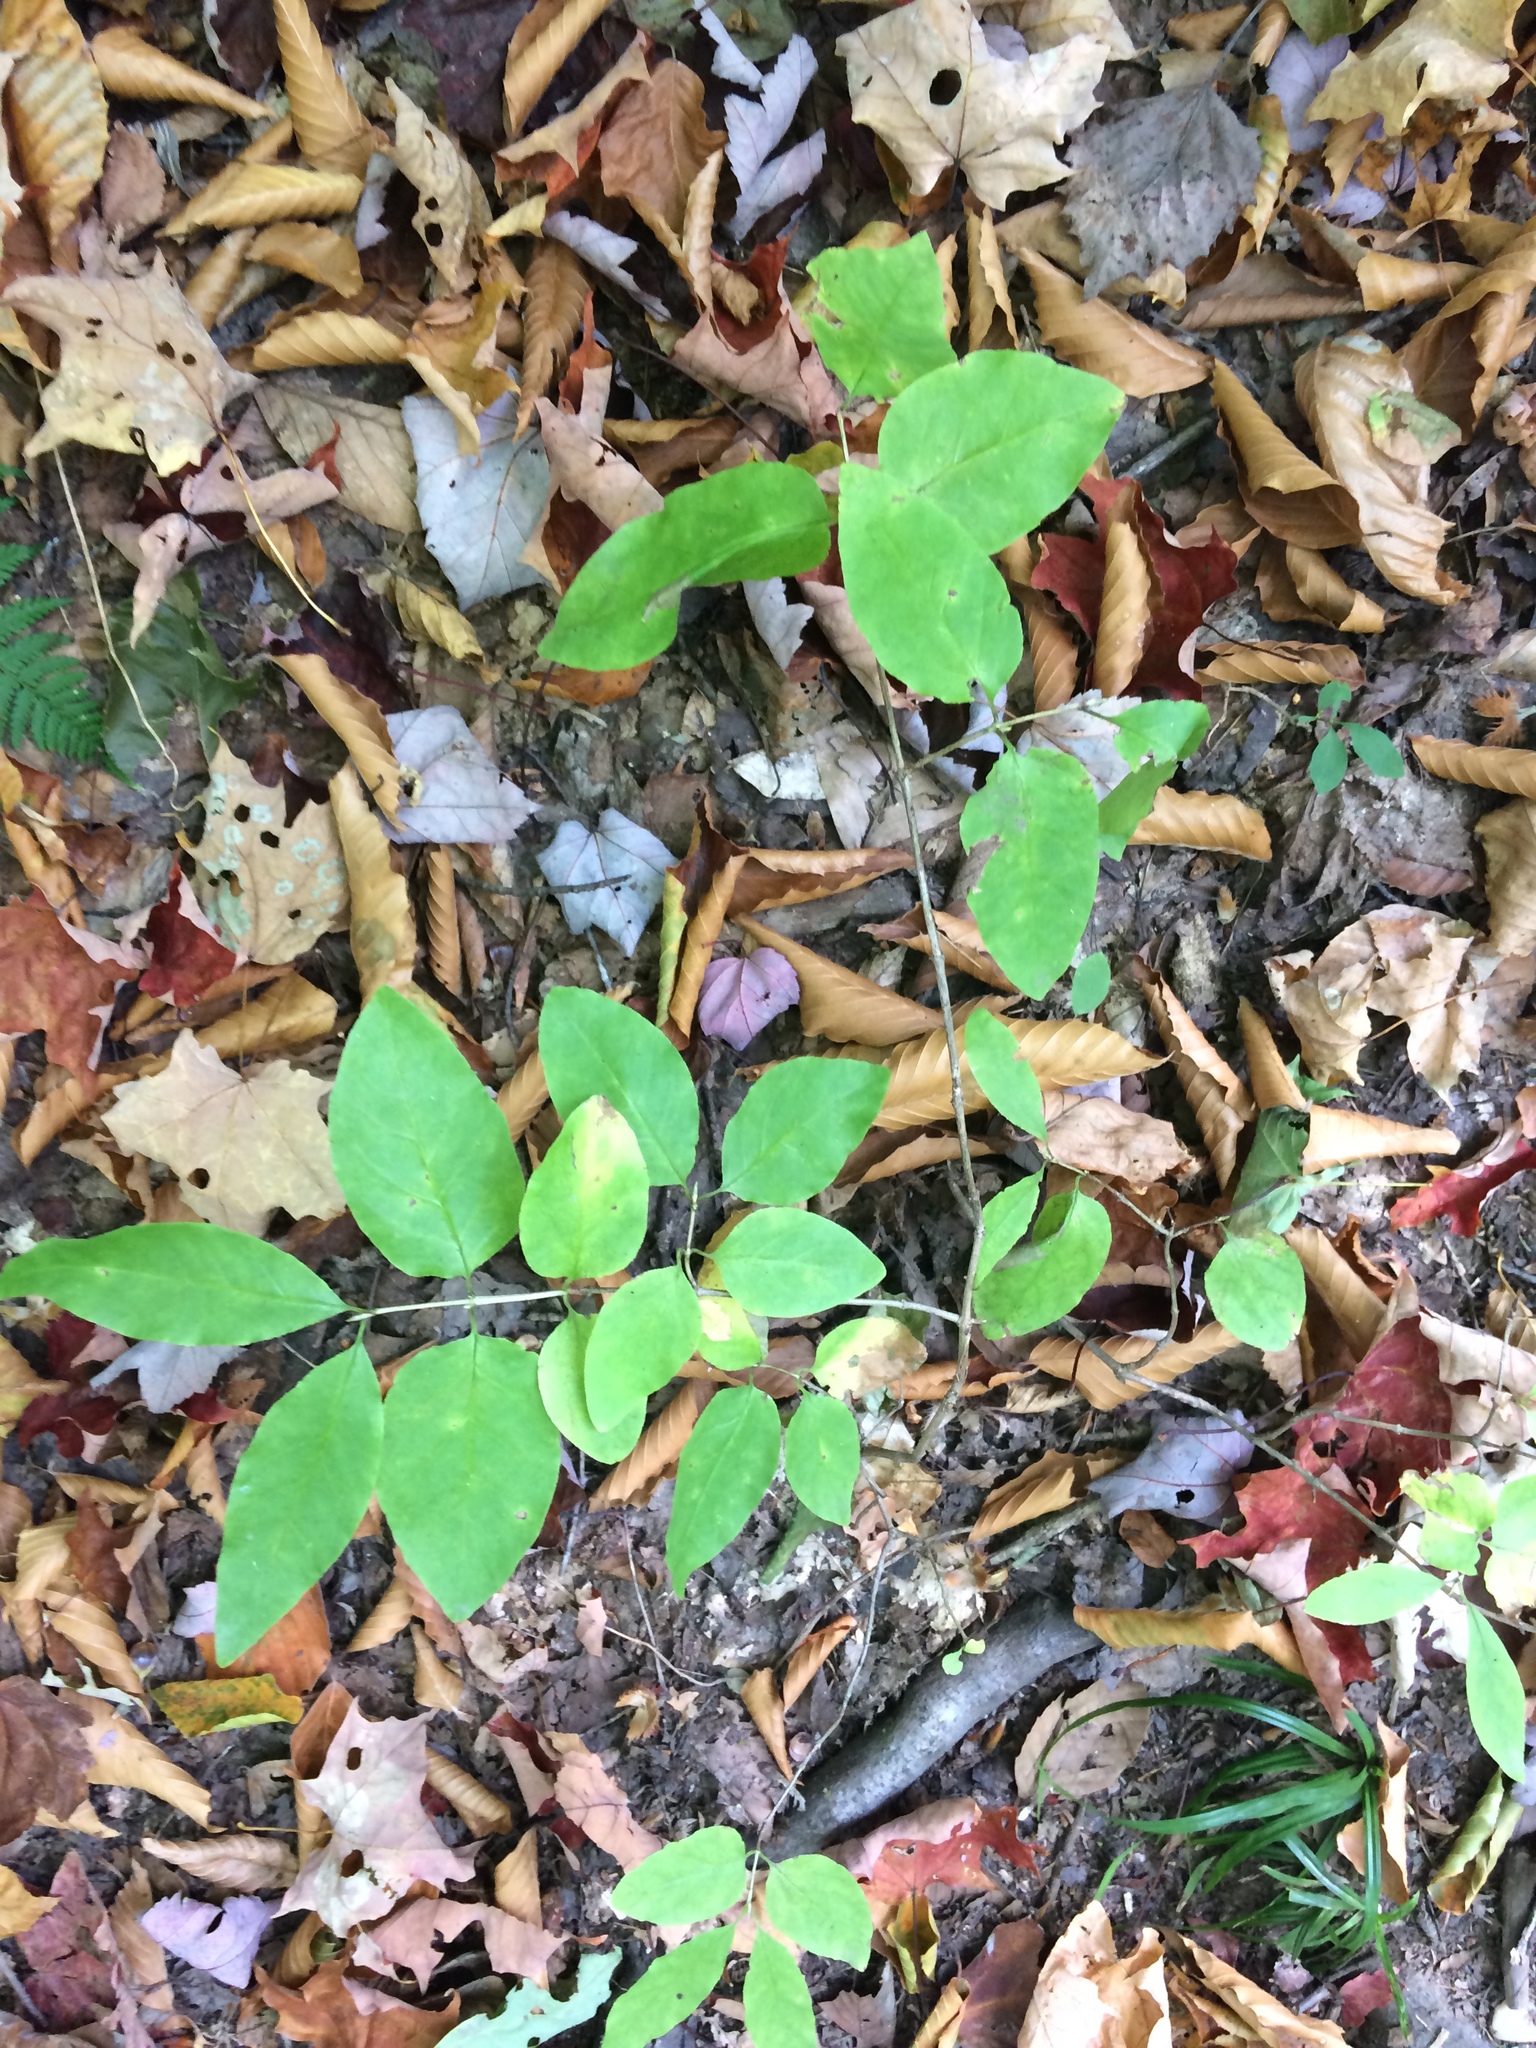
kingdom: Plantae
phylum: Tracheophyta
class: Magnoliopsida
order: Dipsacales
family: Caprifoliaceae
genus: Lonicera
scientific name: Lonicera canadensis
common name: American fly-honeysuckle
